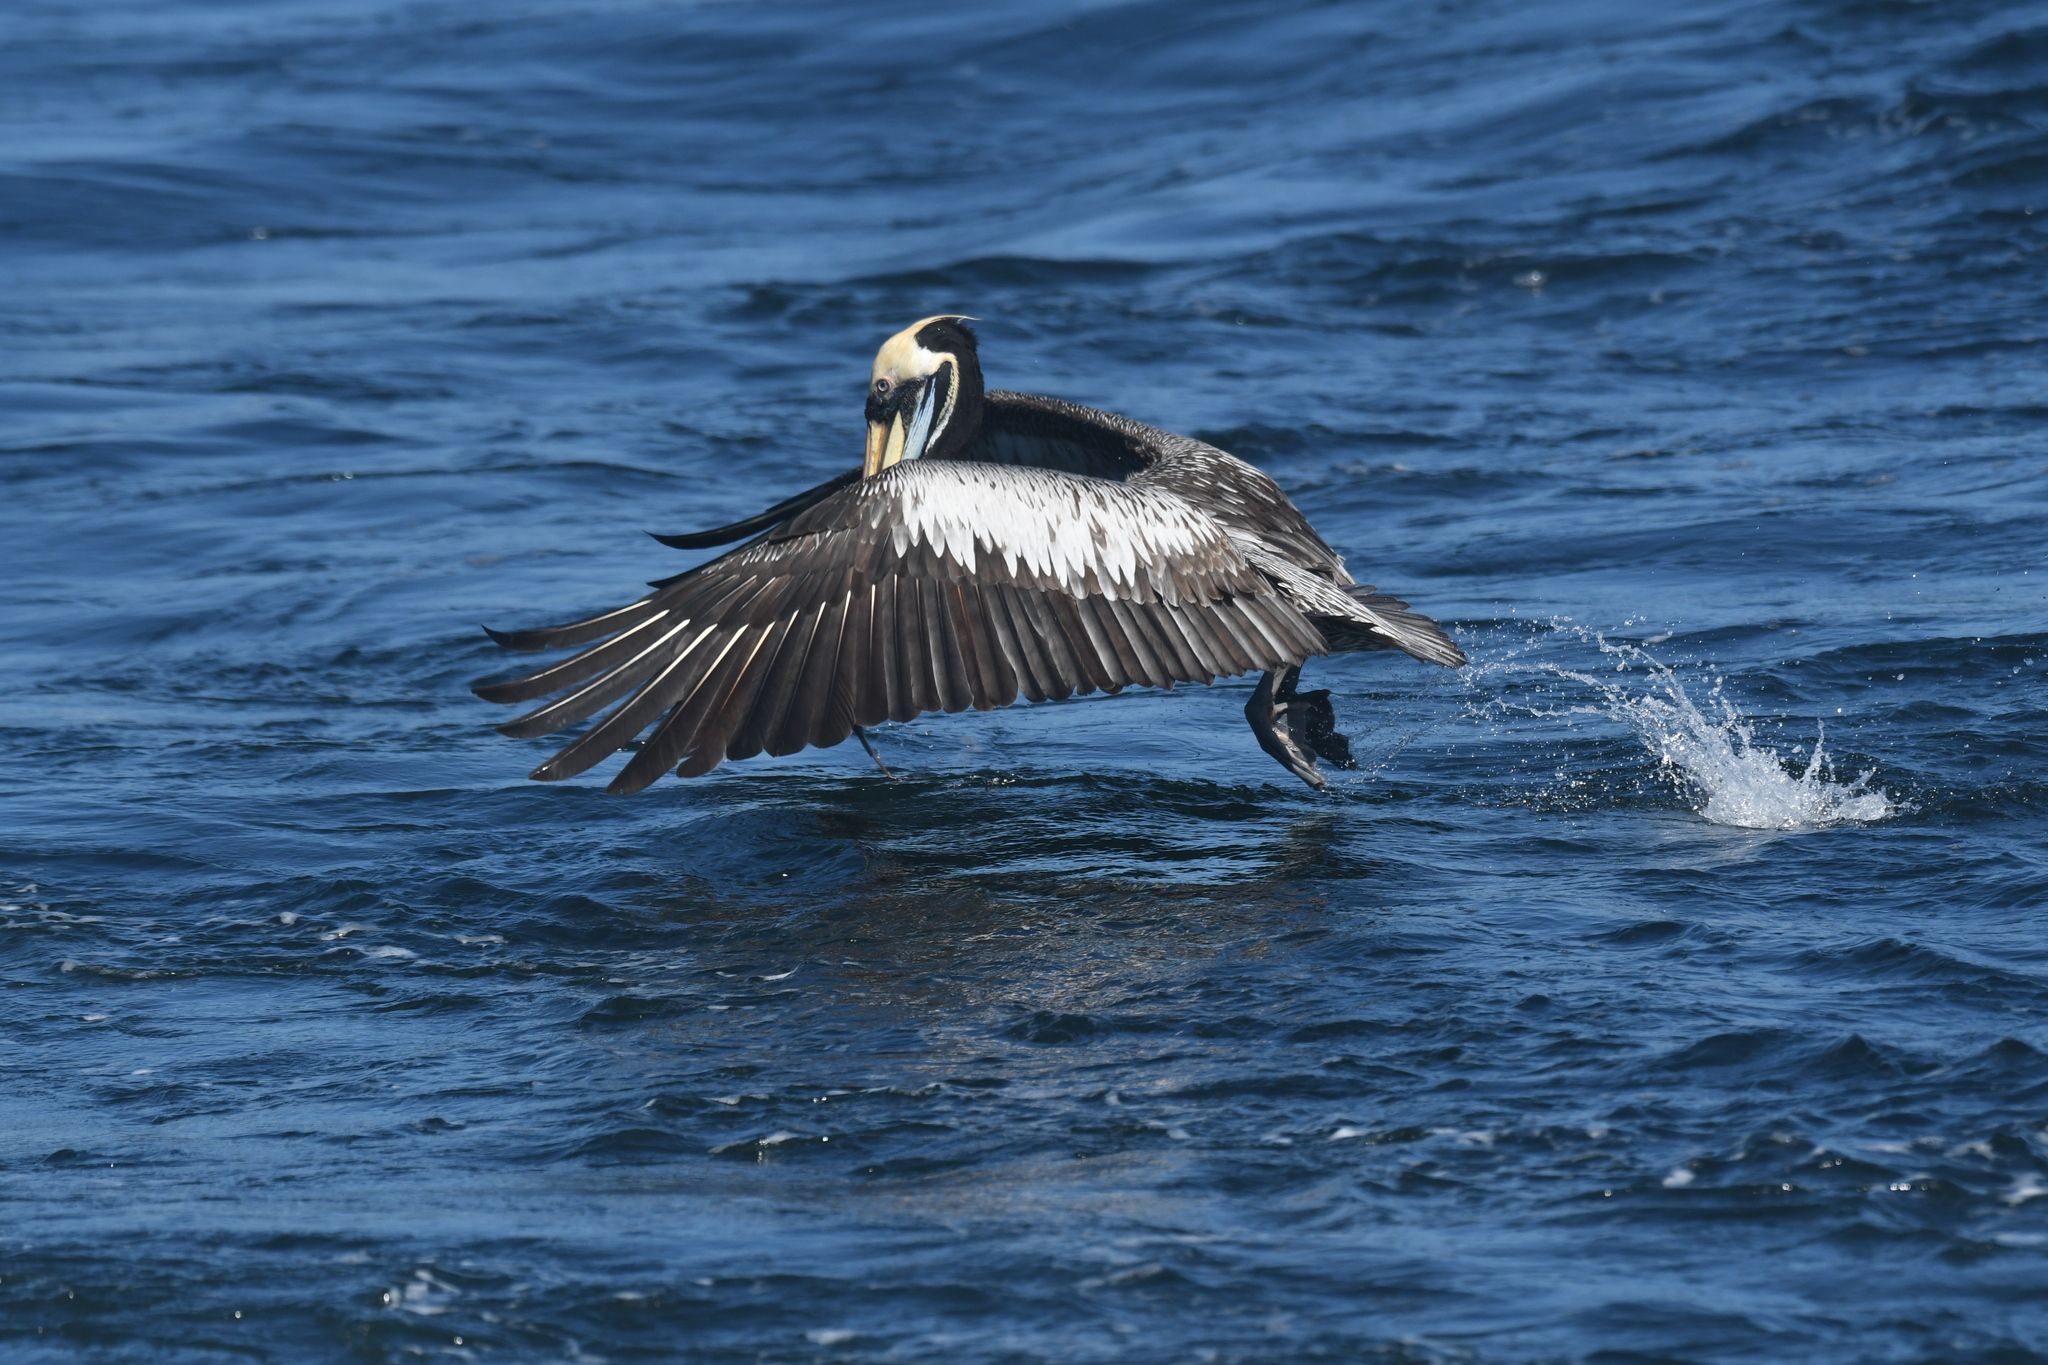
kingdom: Animalia
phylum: Chordata
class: Aves
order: Pelecaniformes
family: Pelecanidae
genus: Pelecanus
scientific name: Pelecanus thagus
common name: Peruvian pelican
